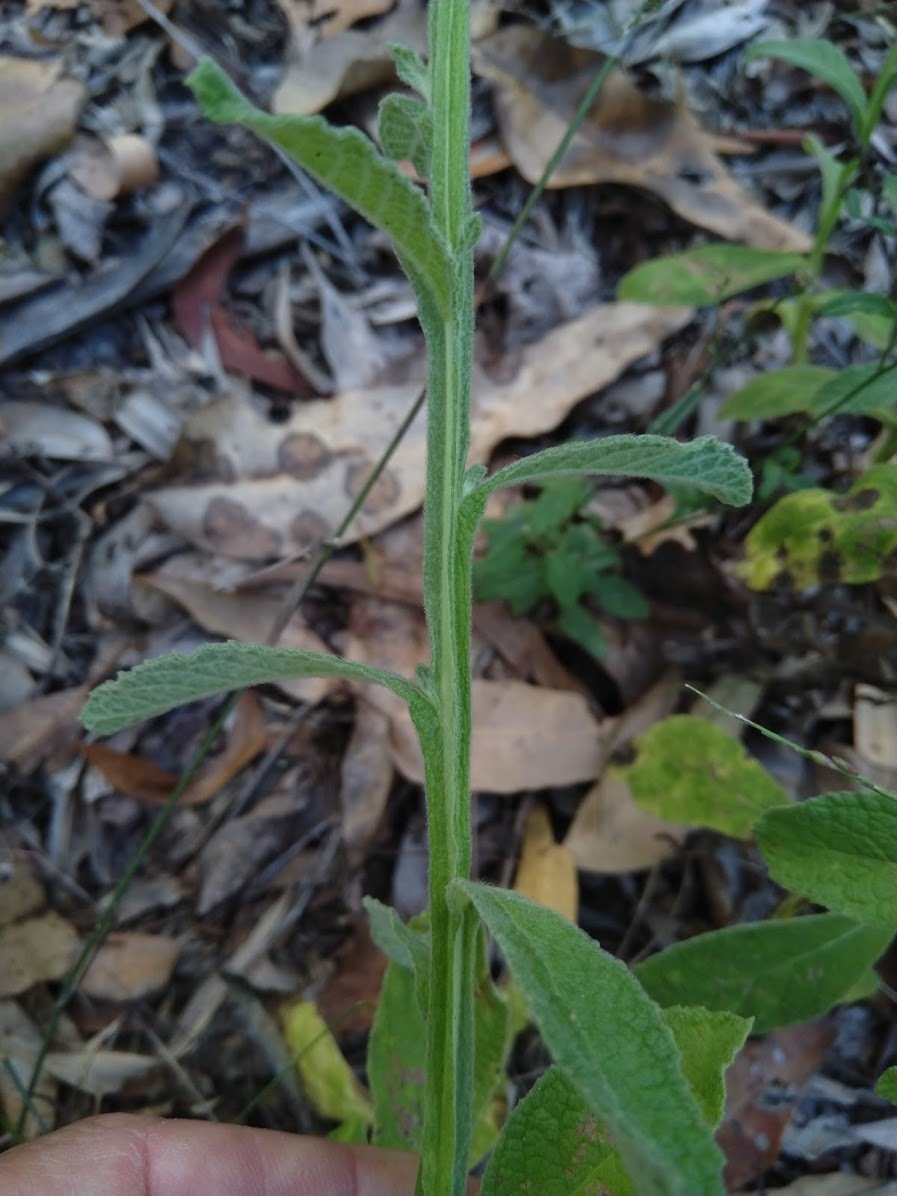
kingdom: Plantae
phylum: Tracheophyta
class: Magnoliopsida
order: Asterales
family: Asteraceae
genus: Pterocaulon
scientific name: Pterocaulon redolens
